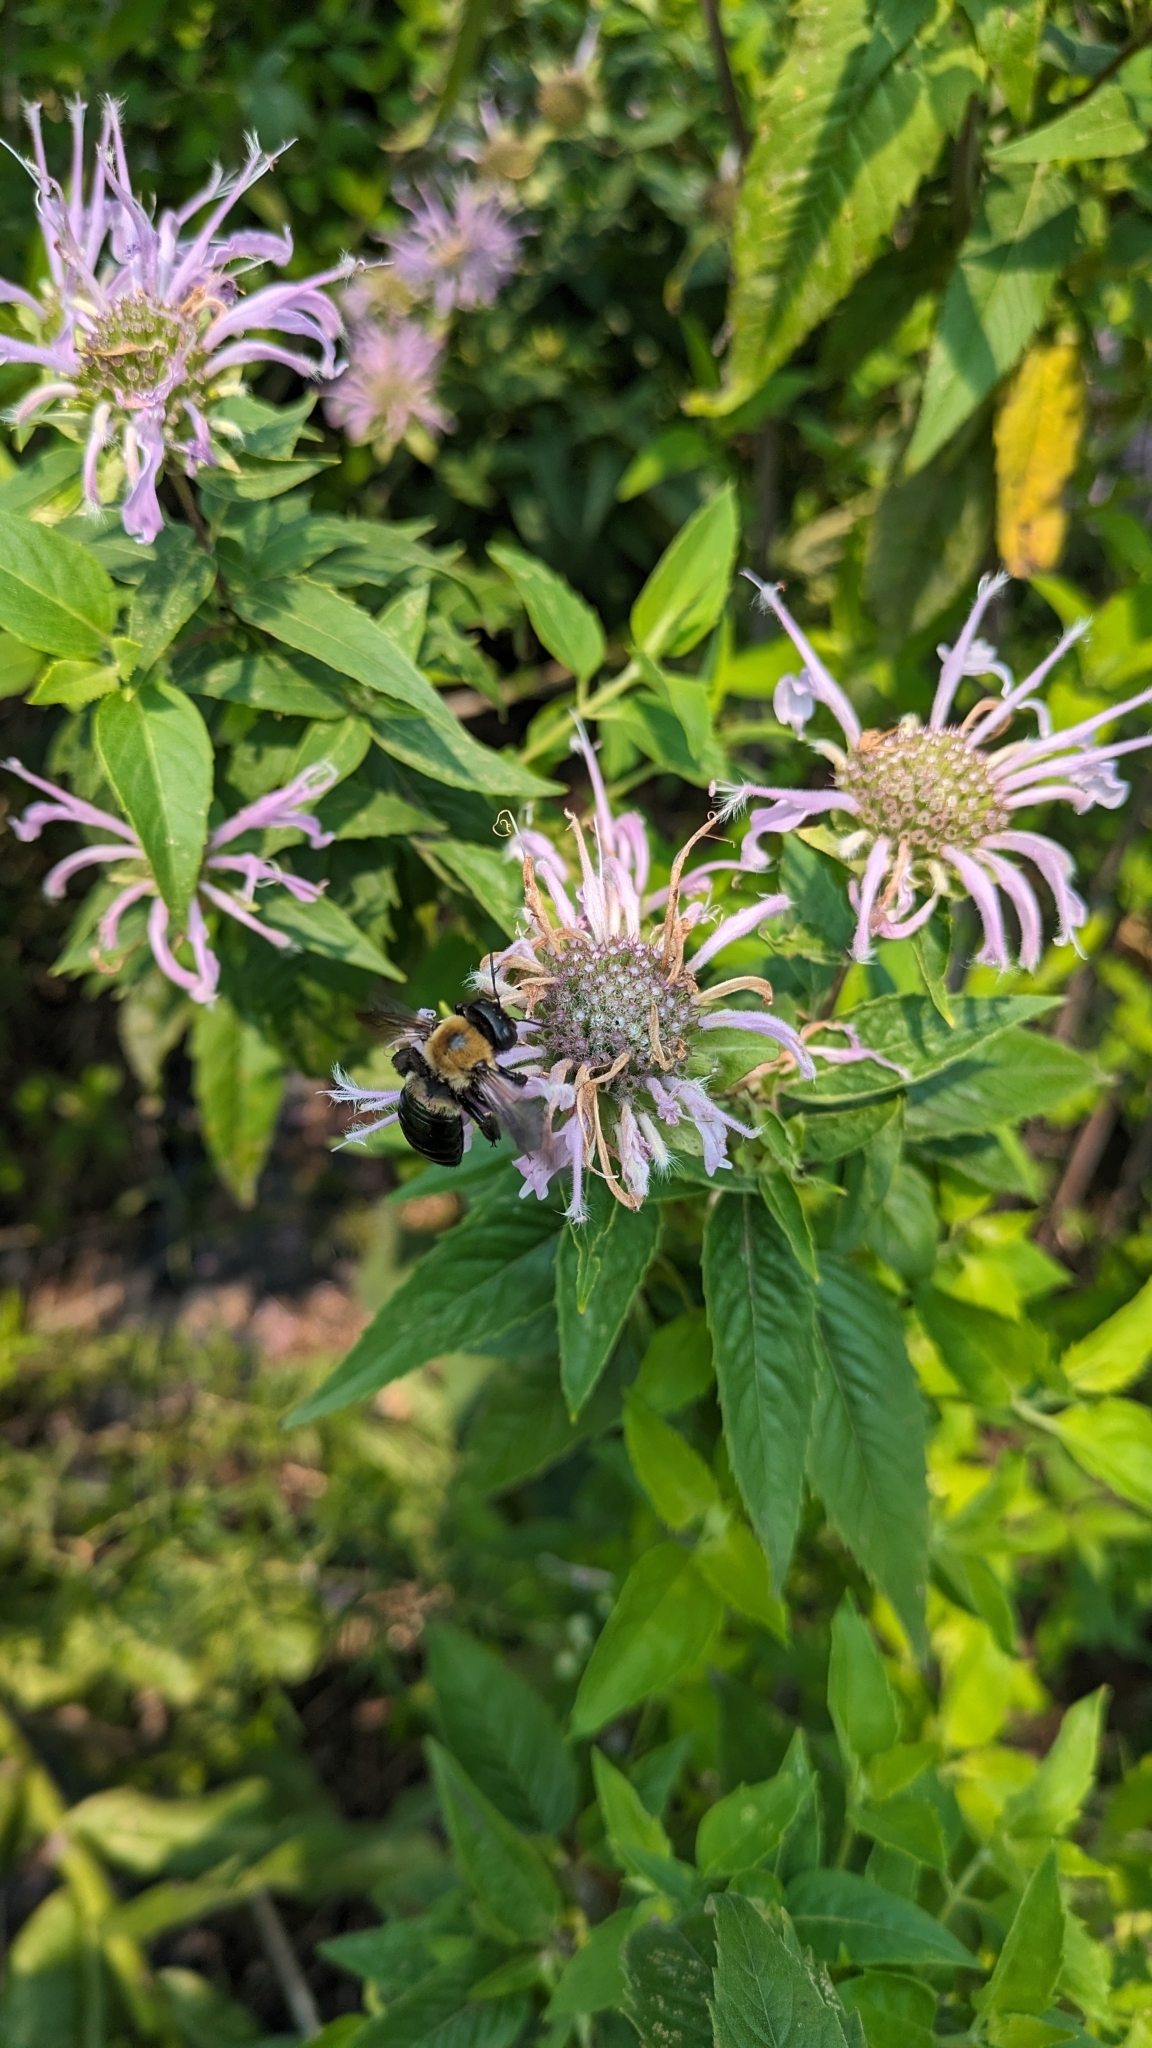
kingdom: Animalia
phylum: Arthropoda
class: Insecta
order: Hymenoptera
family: Apidae
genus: Xylocopa
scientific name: Xylocopa virginica
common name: Carpenter bee
